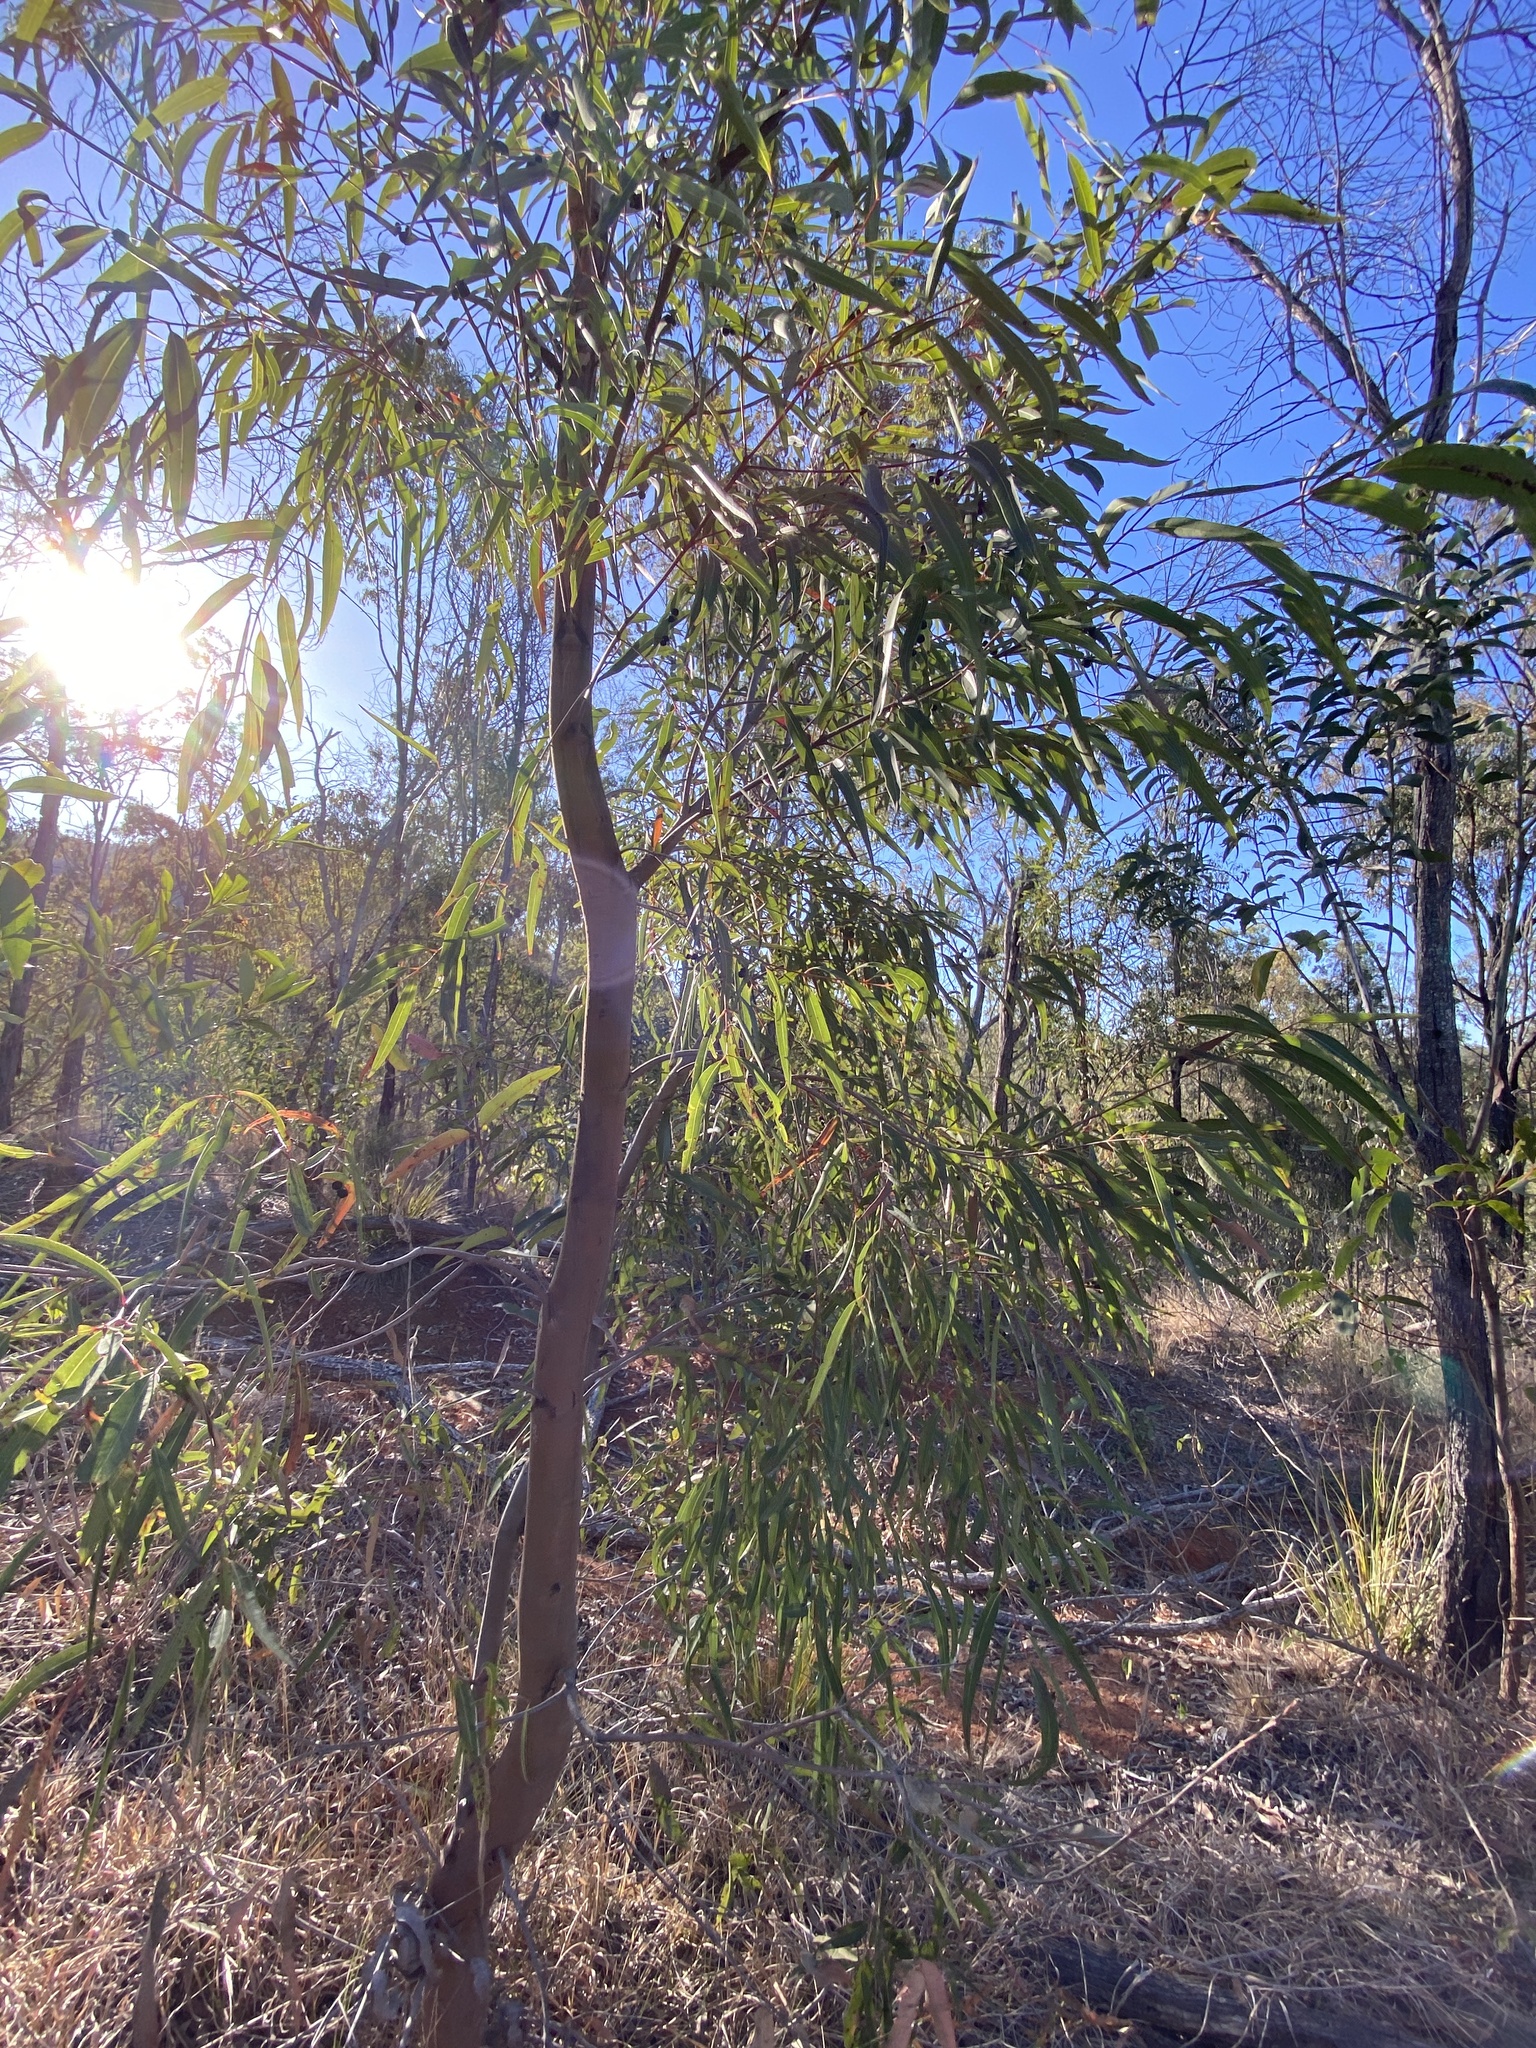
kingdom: Plantae
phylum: Tracheophyta
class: Magnoliopsida
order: Myrtales
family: Myrtaceae
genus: Angophora
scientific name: Angophora leiocarpa
